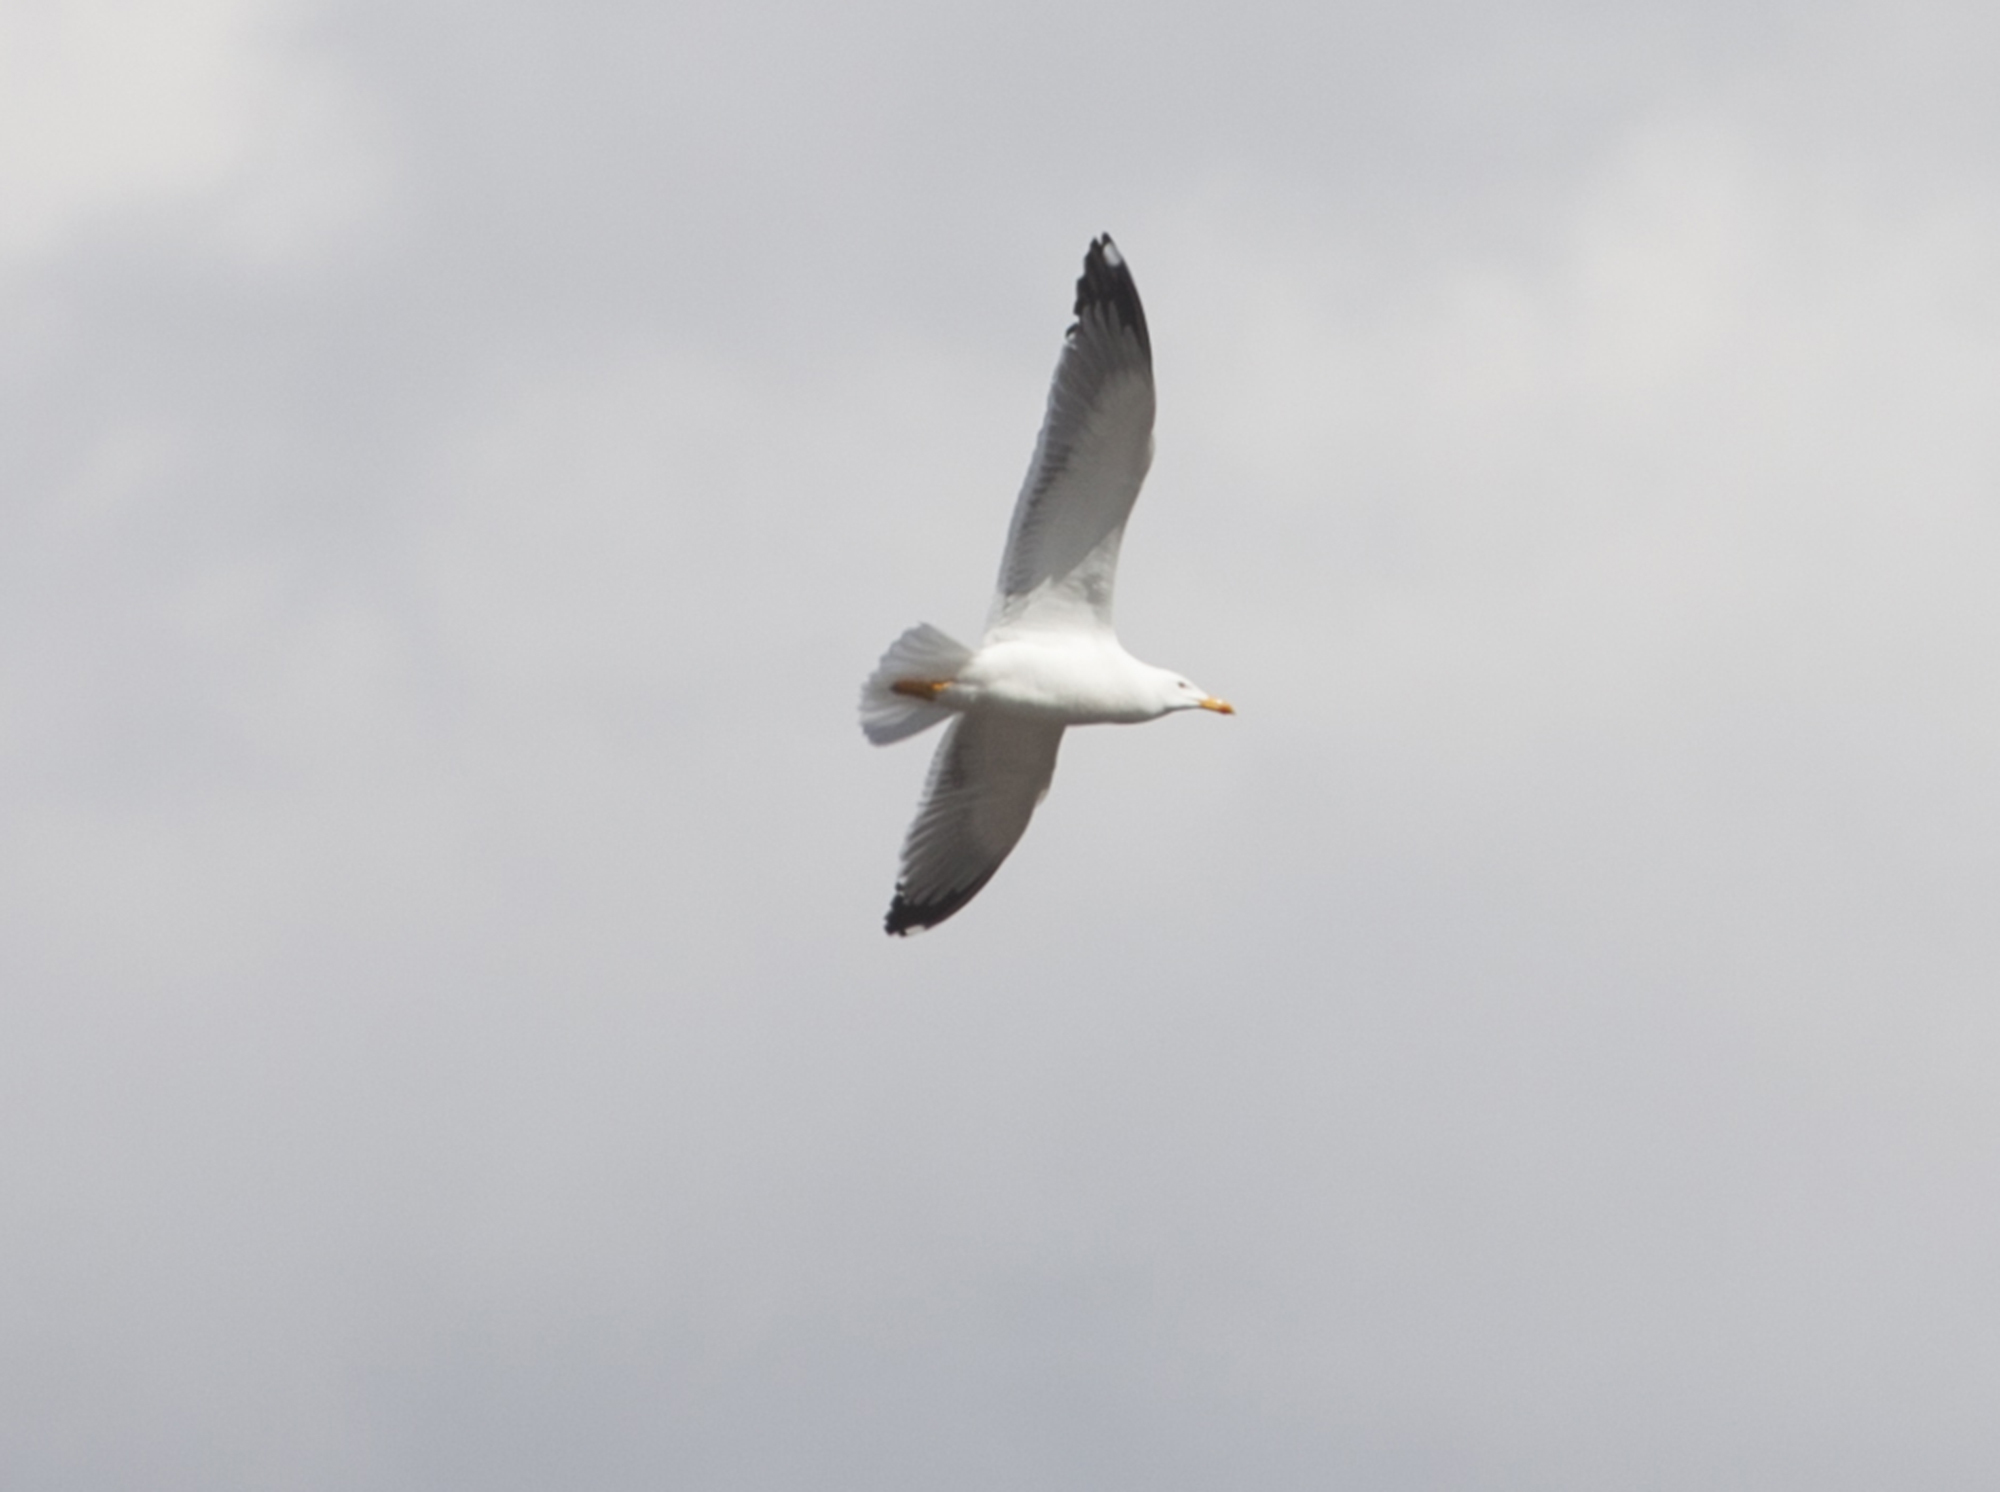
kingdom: Animalia
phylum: Chordata
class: Aves
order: Charadriiformes
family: Laridae
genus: Larus
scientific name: Larus fuscus
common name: Lesser black-backed gull
